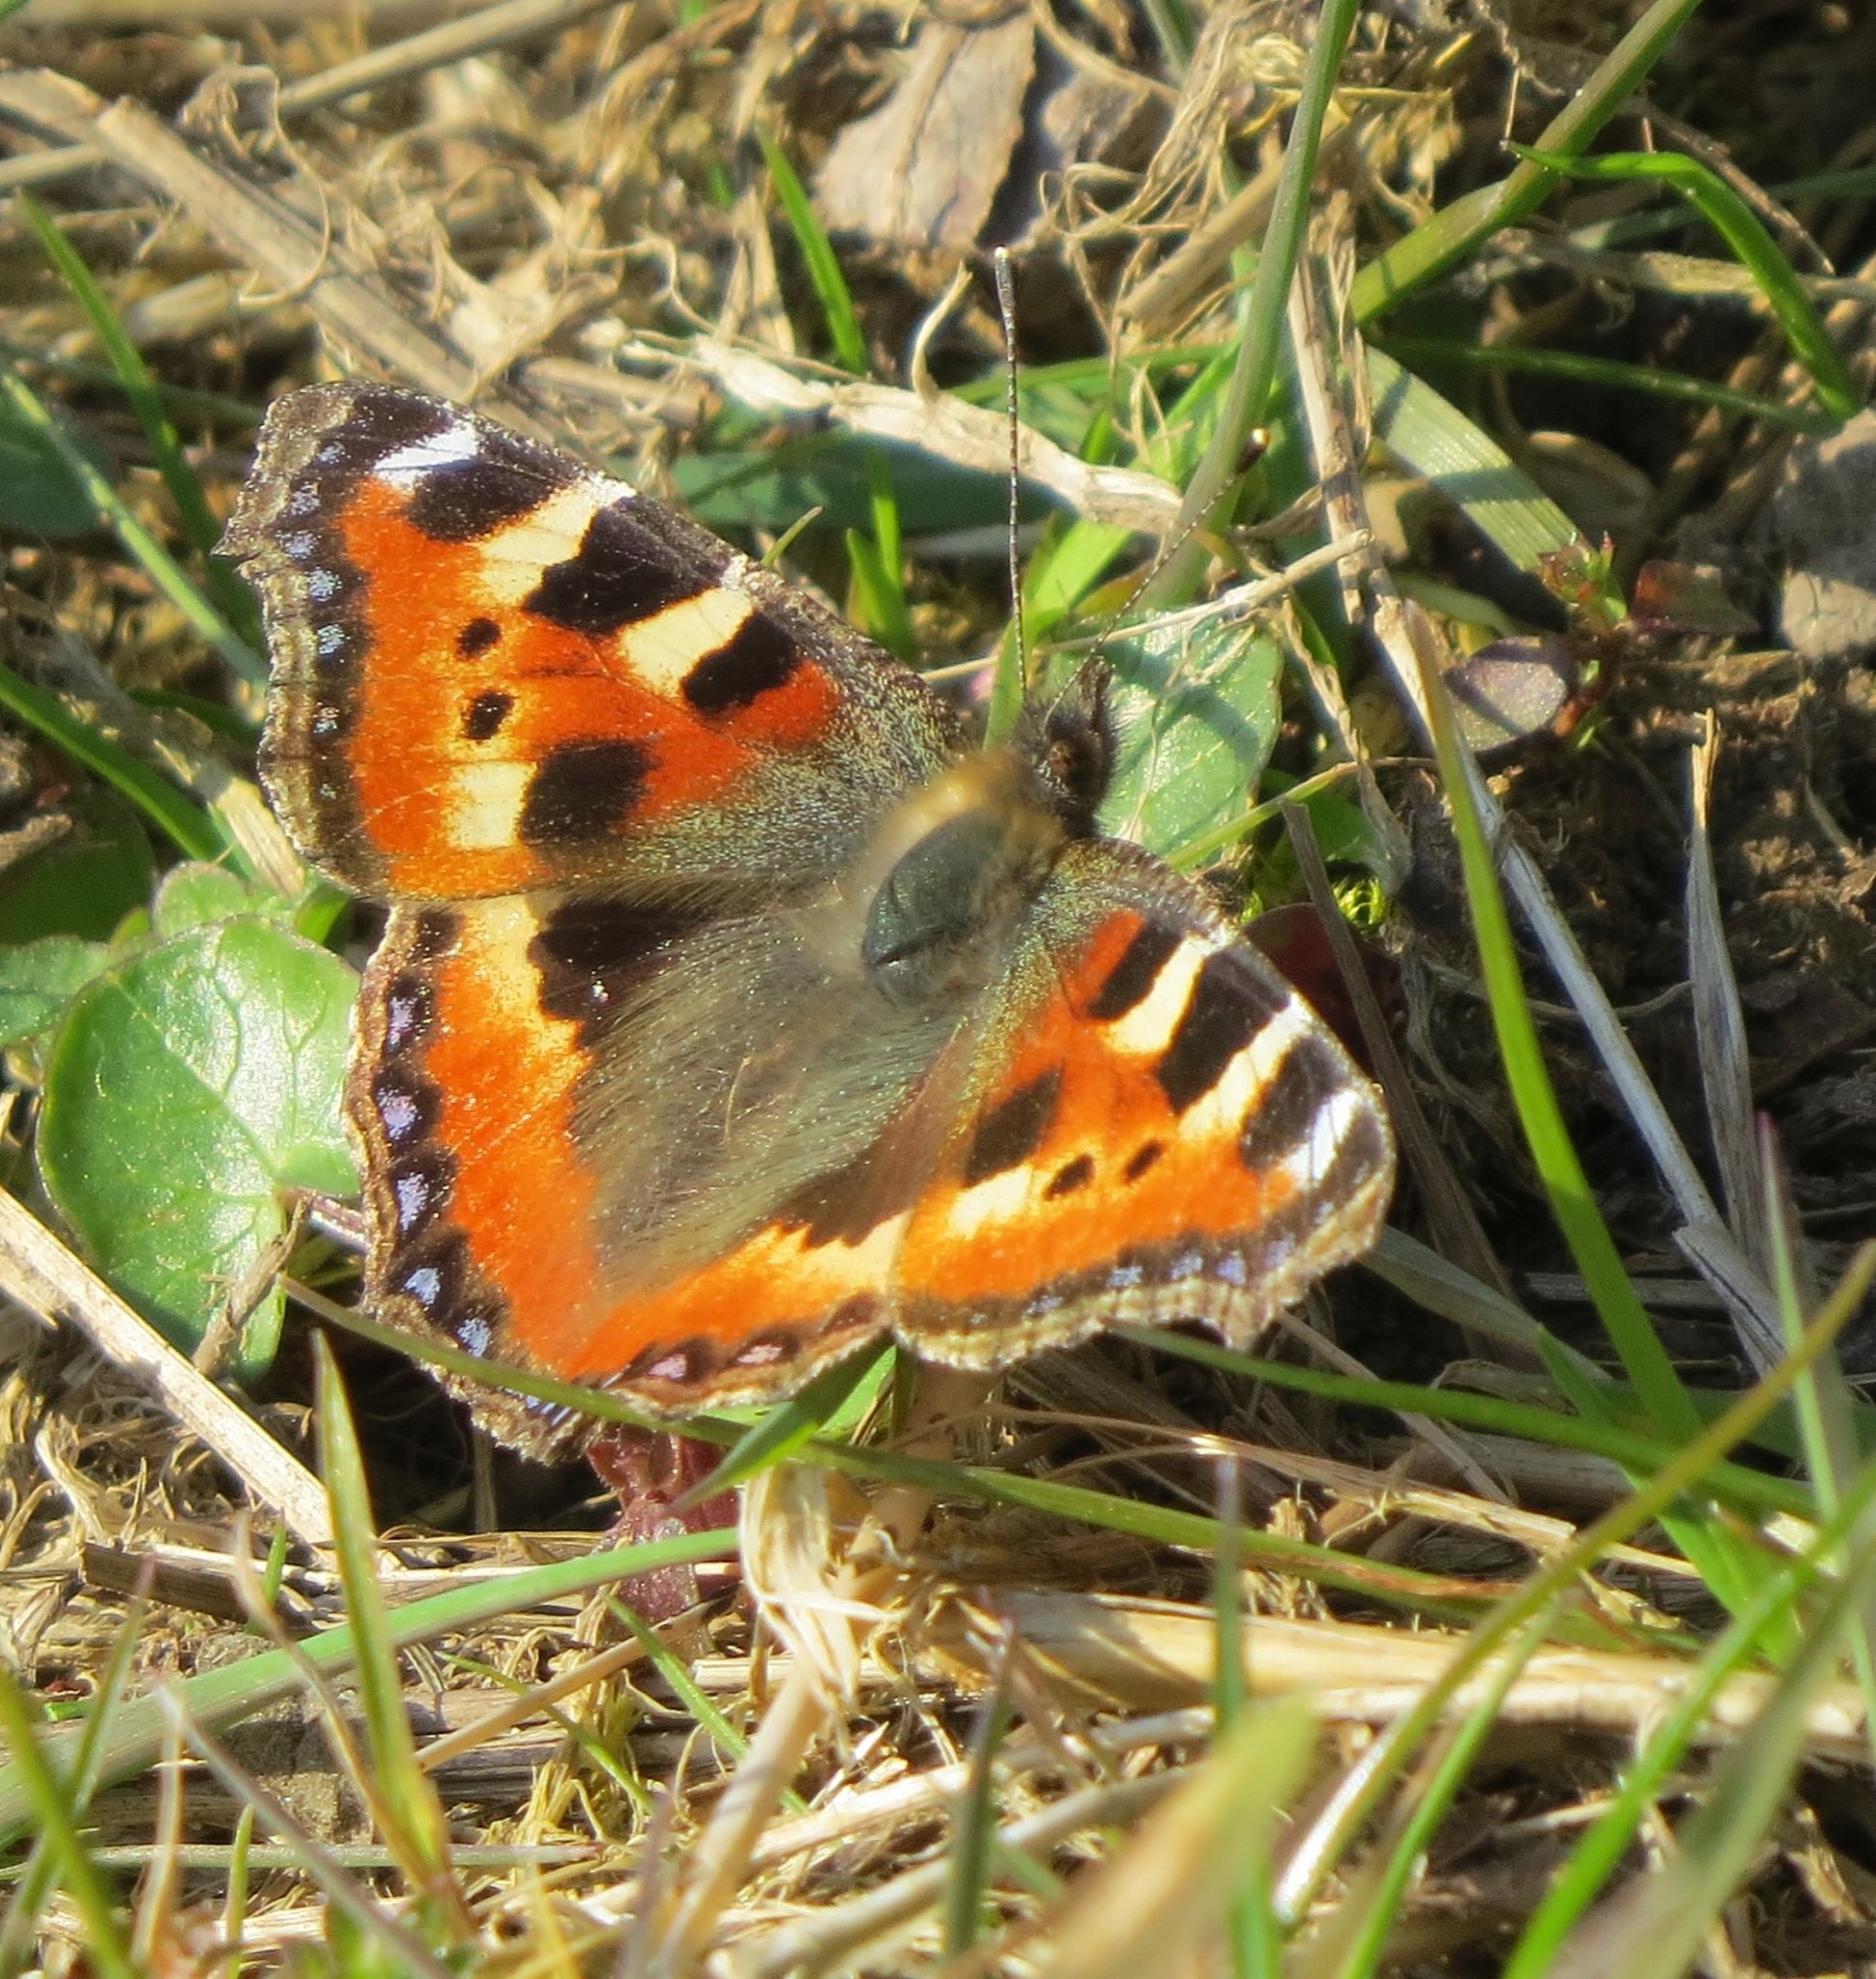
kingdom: Animalia
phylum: Arthropoda
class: Insecta
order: Lepidoptera
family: Nymphalidae
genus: Aglais
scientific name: Aglais urticae
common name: Small tortoiseshell
